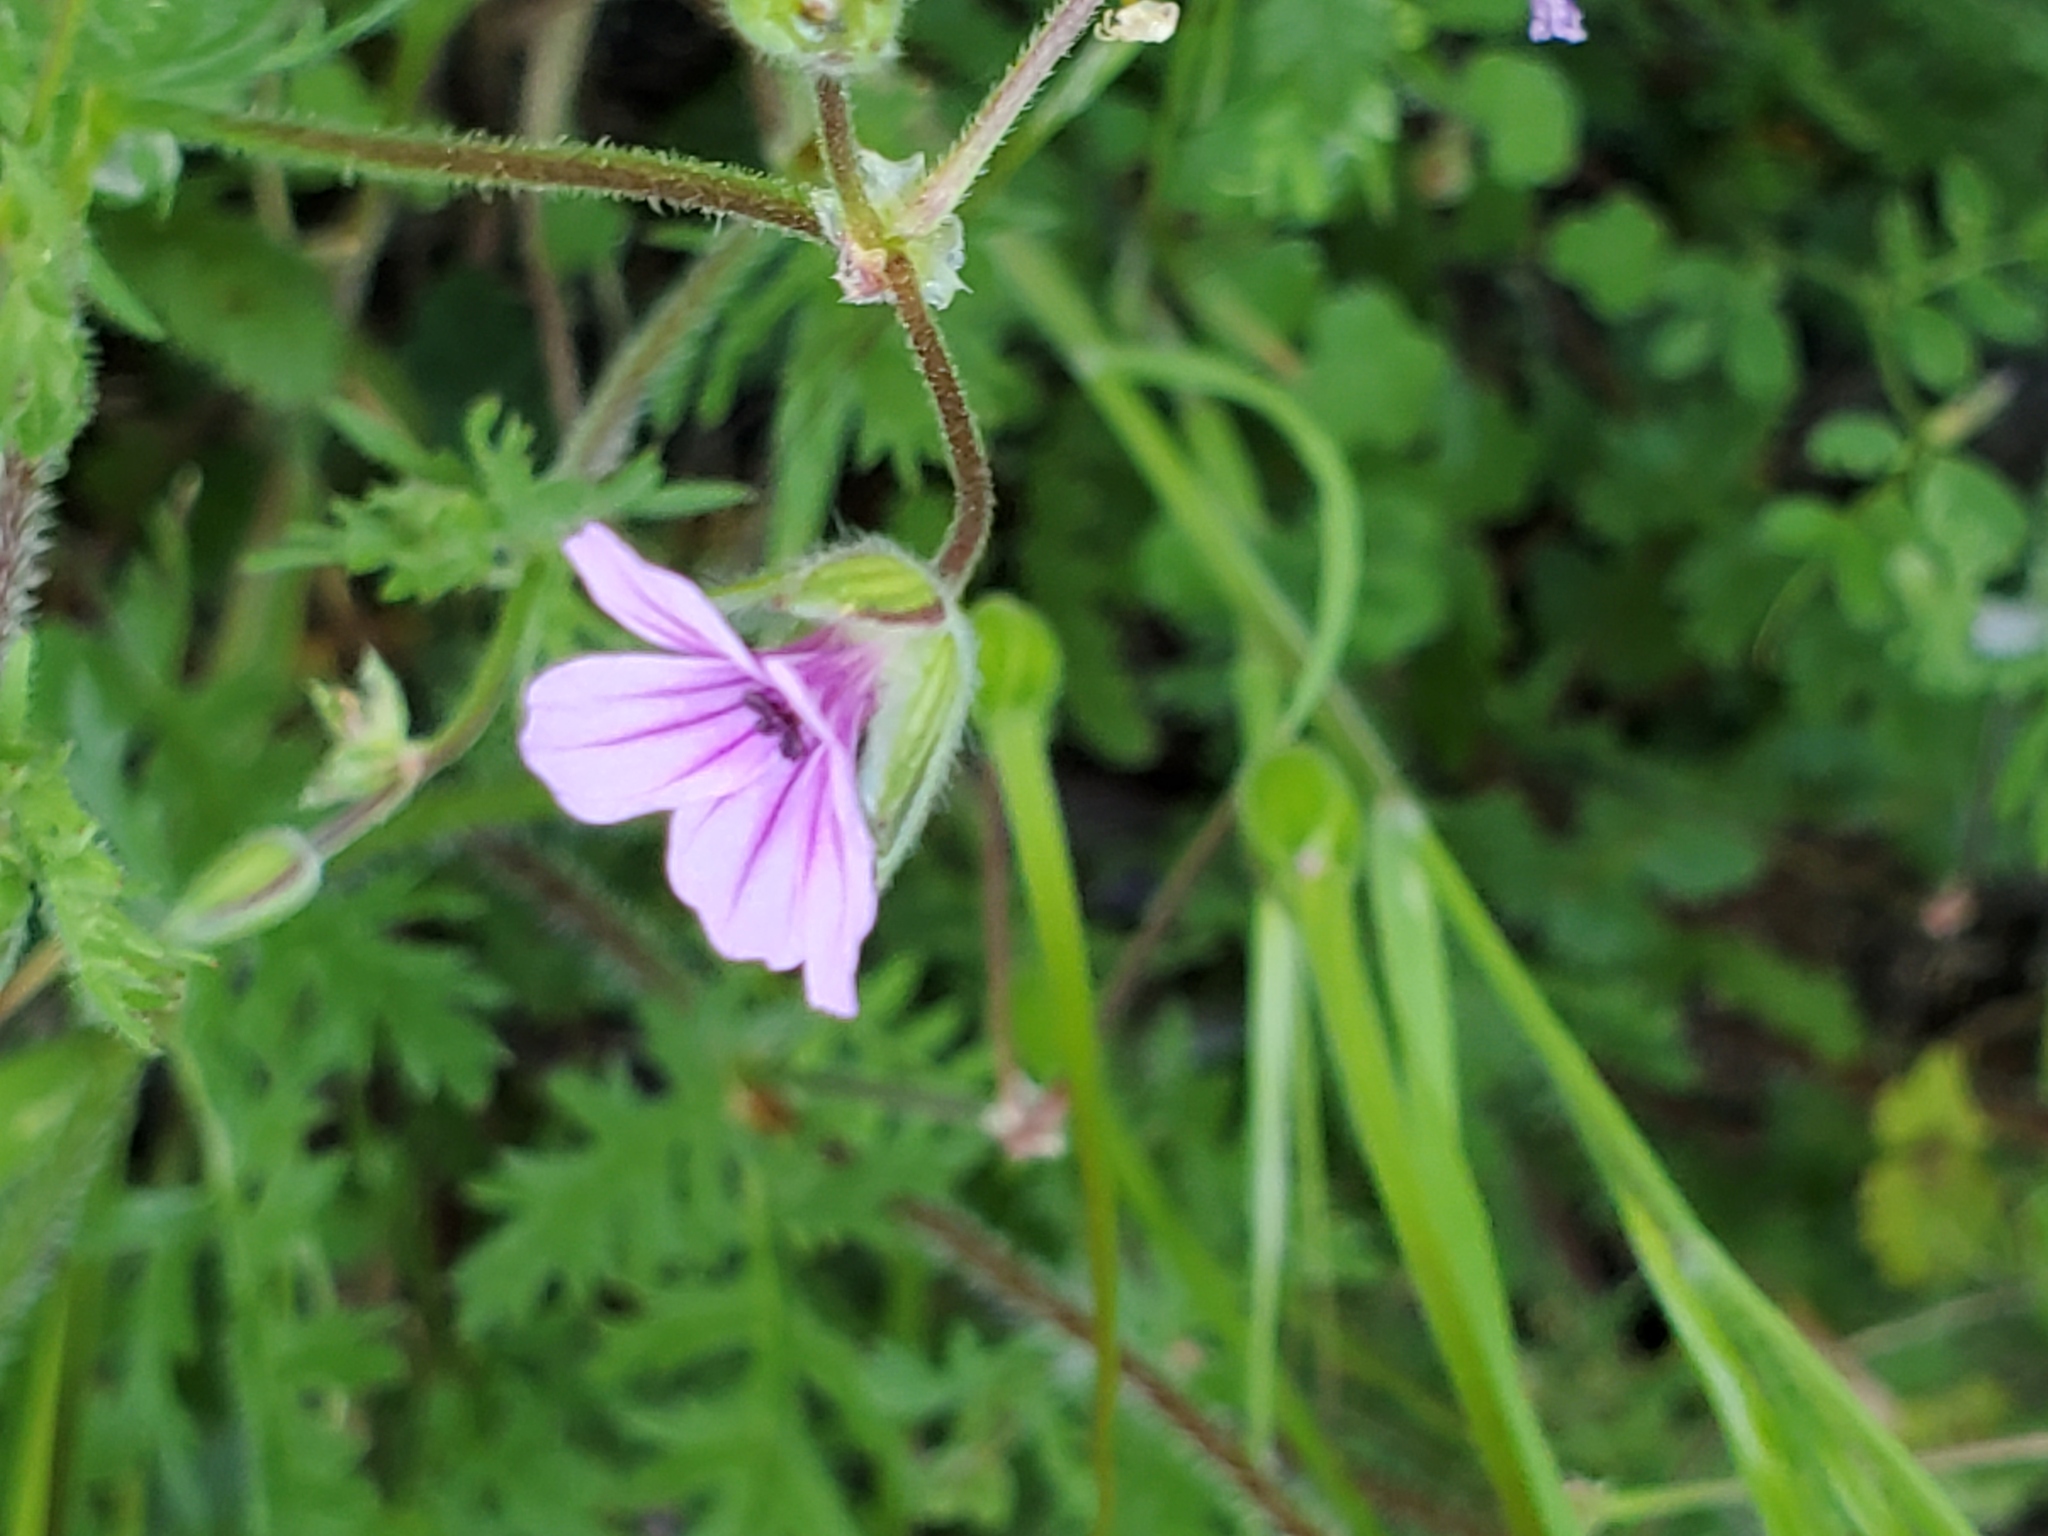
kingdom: Plantae
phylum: Tracheophyta
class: Magnoliopsida
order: Geraniales
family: Geraniaceae
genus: Erodium
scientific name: Erodium botrys
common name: Mediterranean stork's-bill
